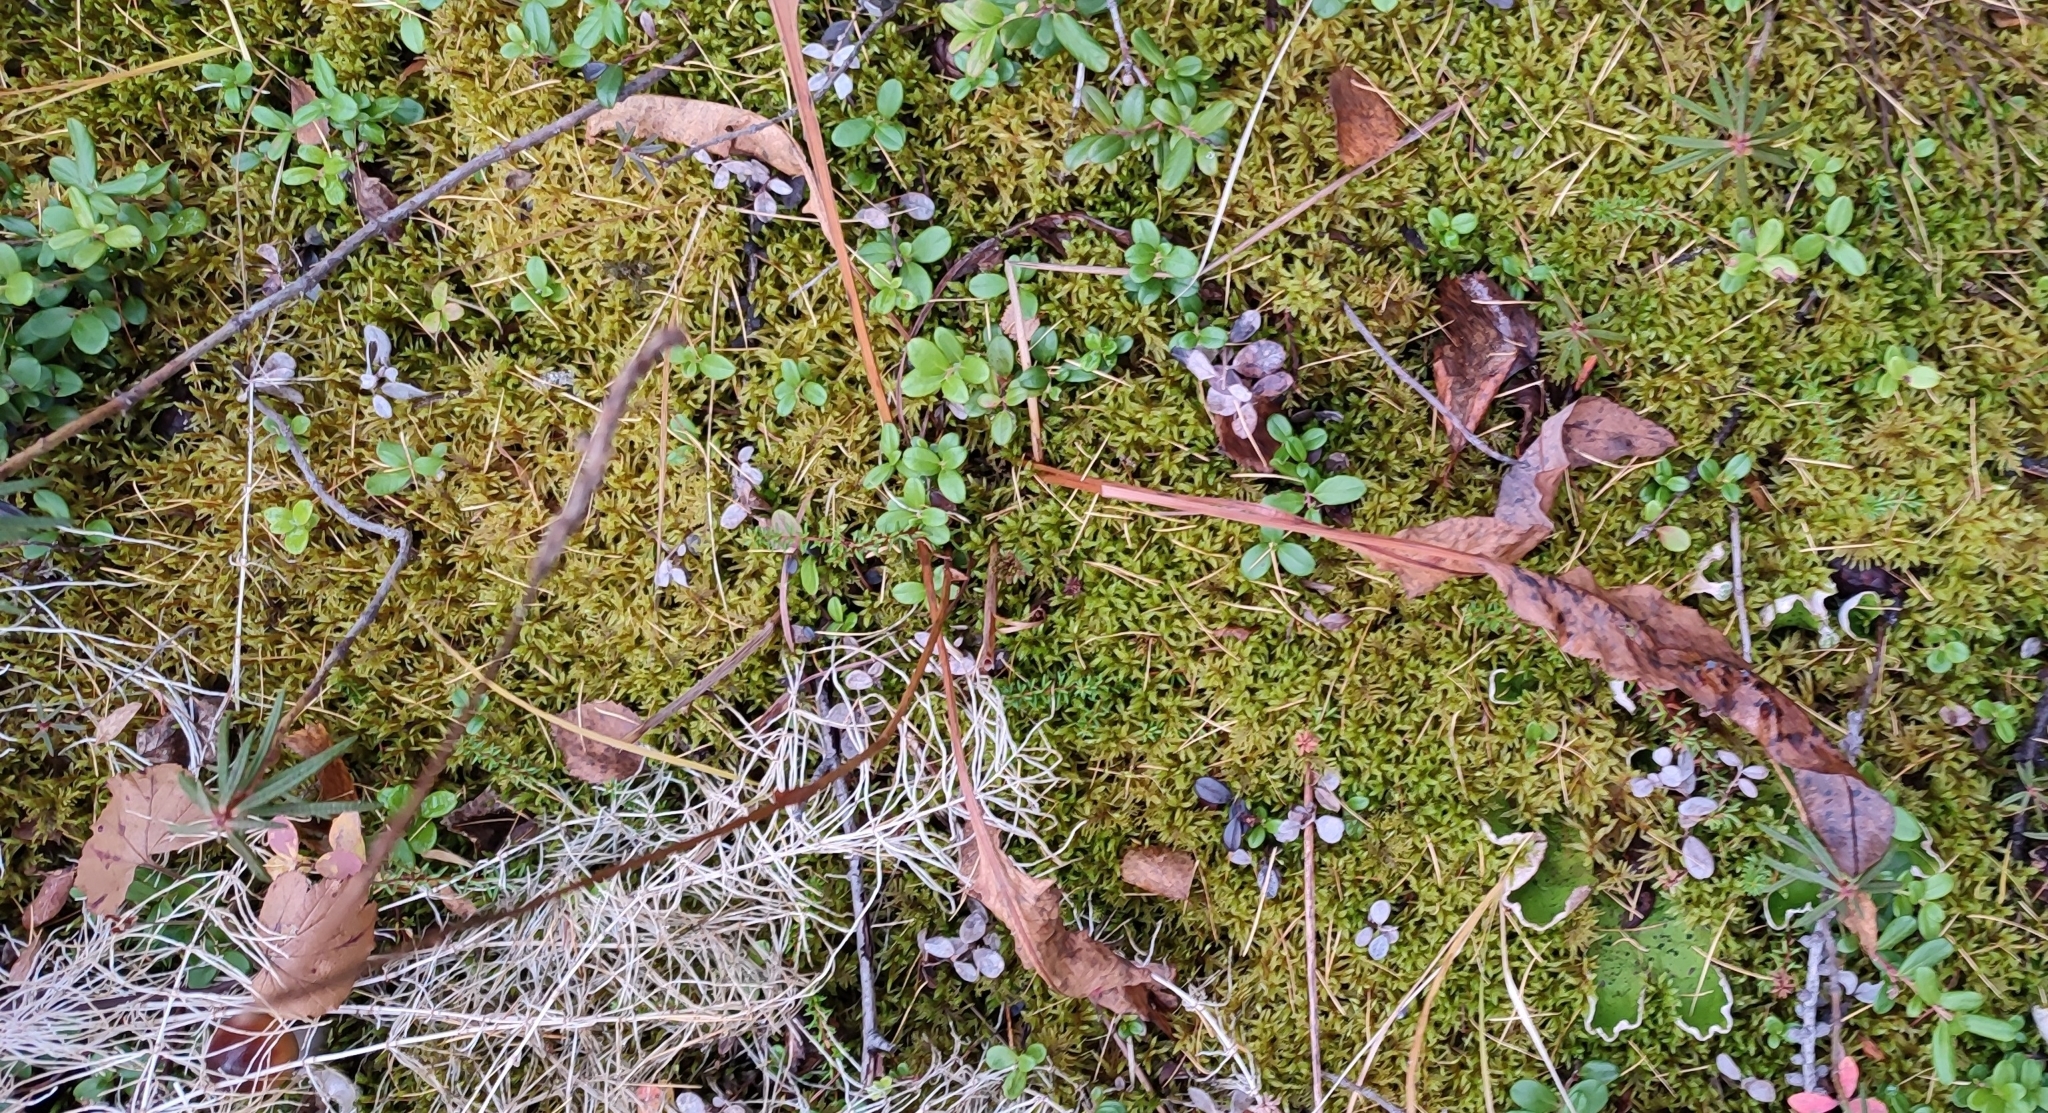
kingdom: Plantae
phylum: Tracheophyta
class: Magnoliopsida
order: Caryophyllales
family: Polygonaceae
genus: Bistorta
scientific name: Bistorta officinalis
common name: Common bistort
